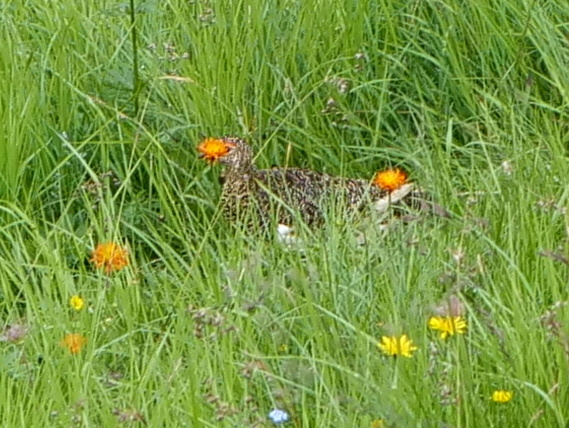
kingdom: Animalia
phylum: Chordata
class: Aves
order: Galliformes
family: Phasianidae
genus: Lagopus
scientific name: Lagopus muta
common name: Rock ptarmigan
